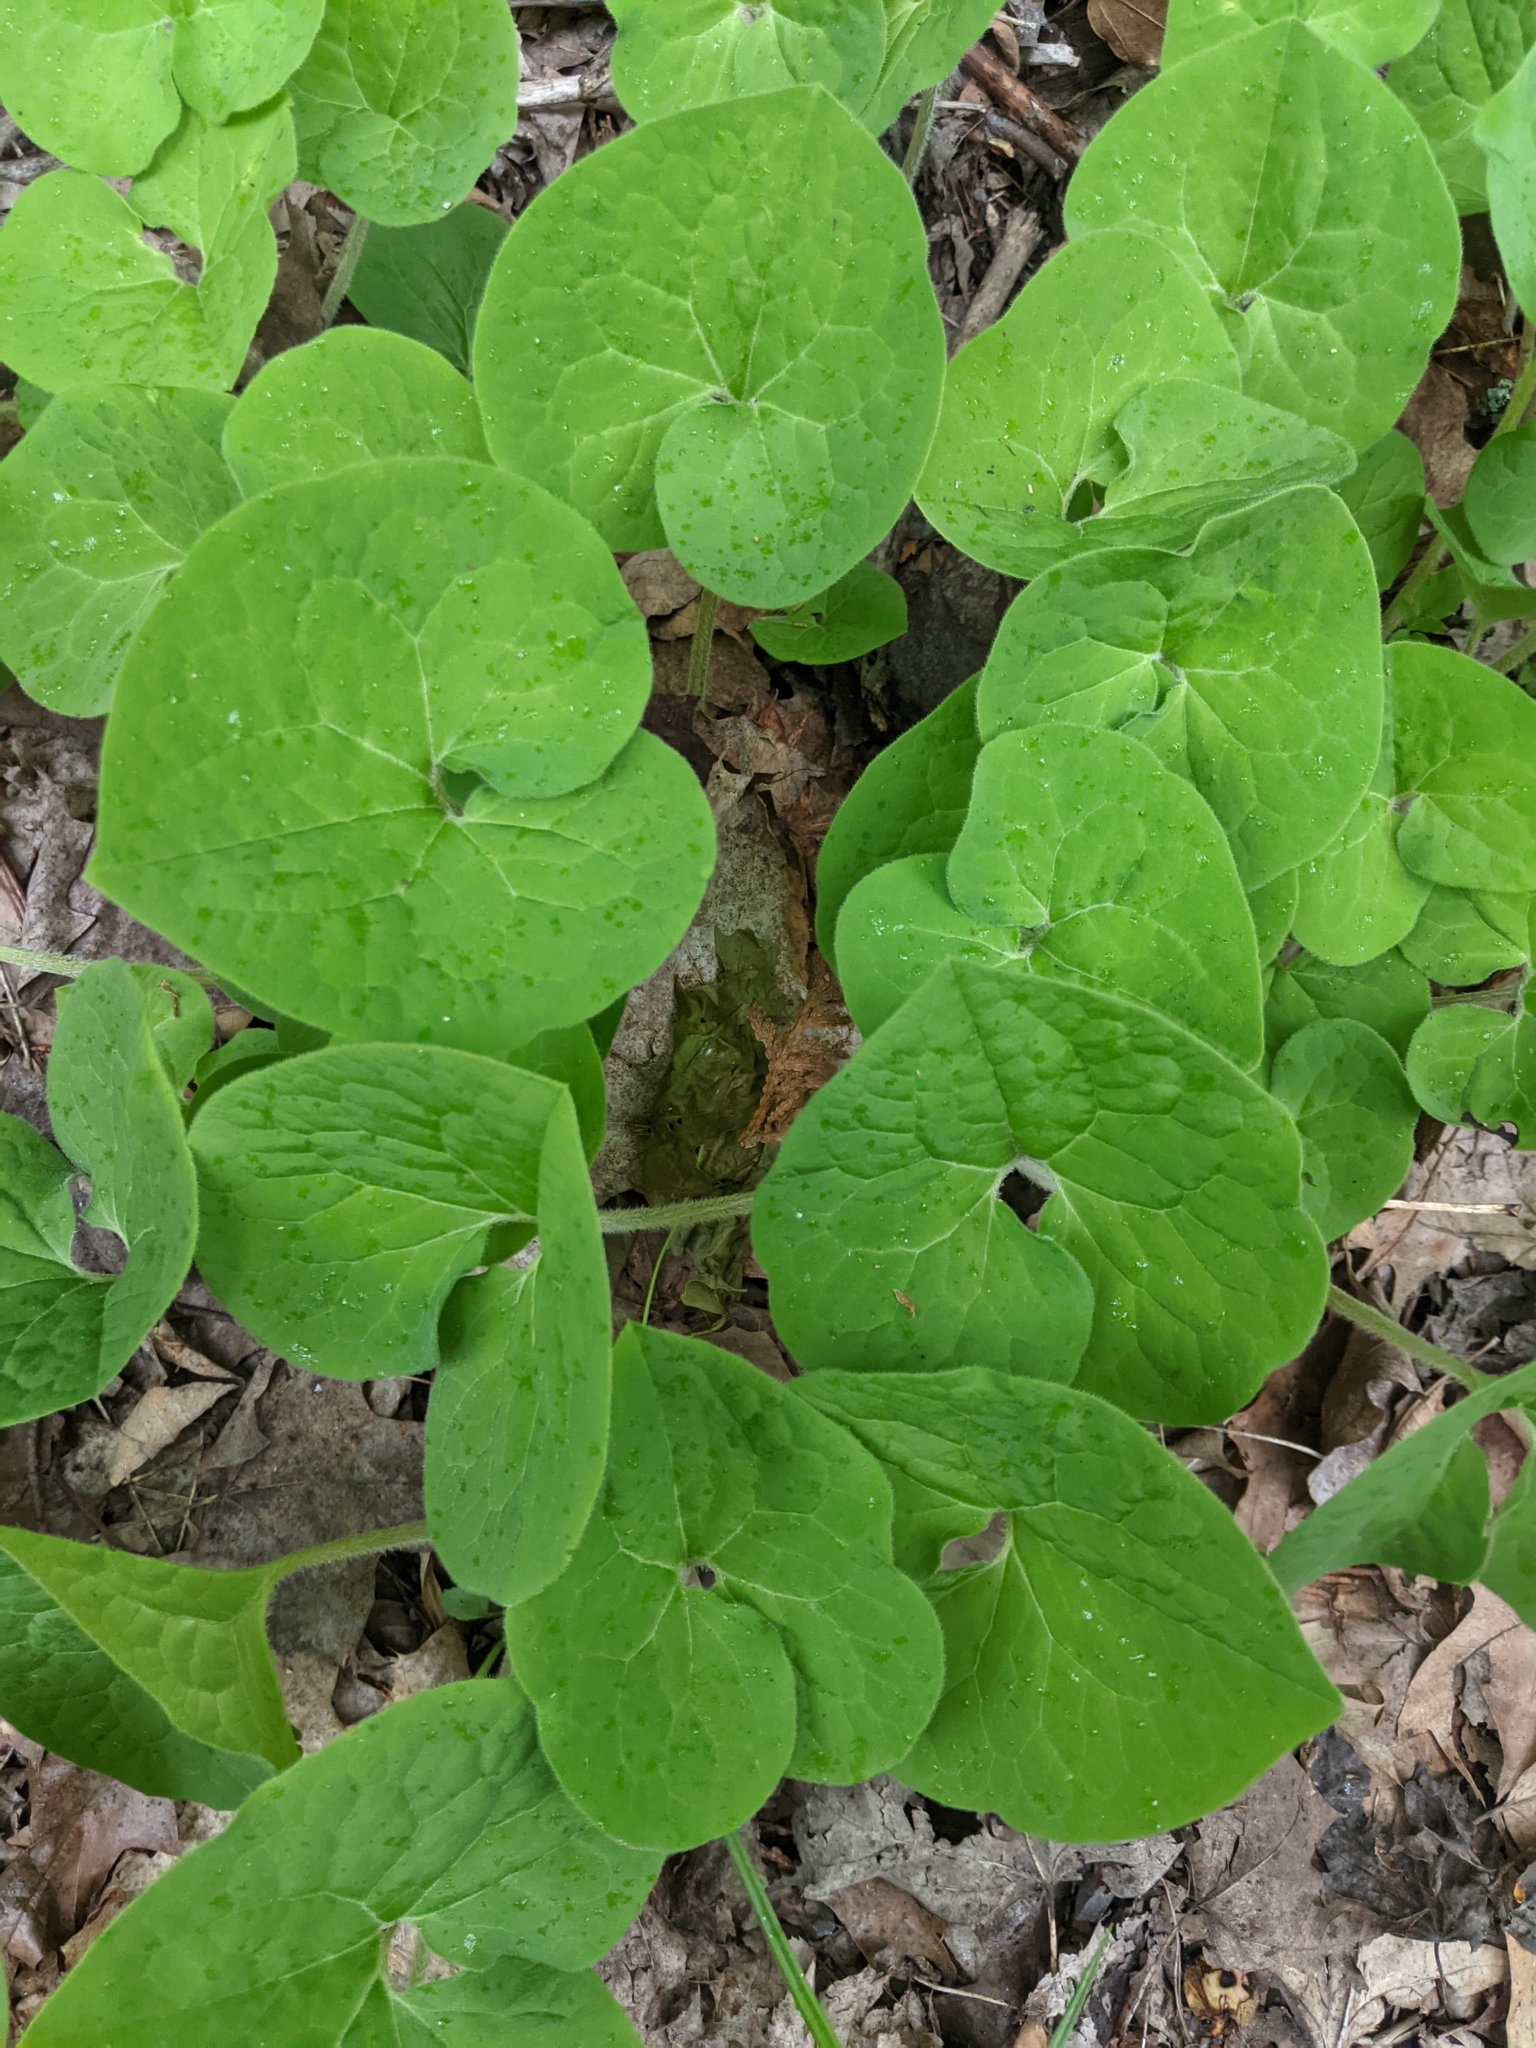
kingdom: Plantae
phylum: Tracheophyta
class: Magnoliopsida
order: Piperales
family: Aristolochiaceae
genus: Asarum
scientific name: Asarum canadense
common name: Wild ginger
